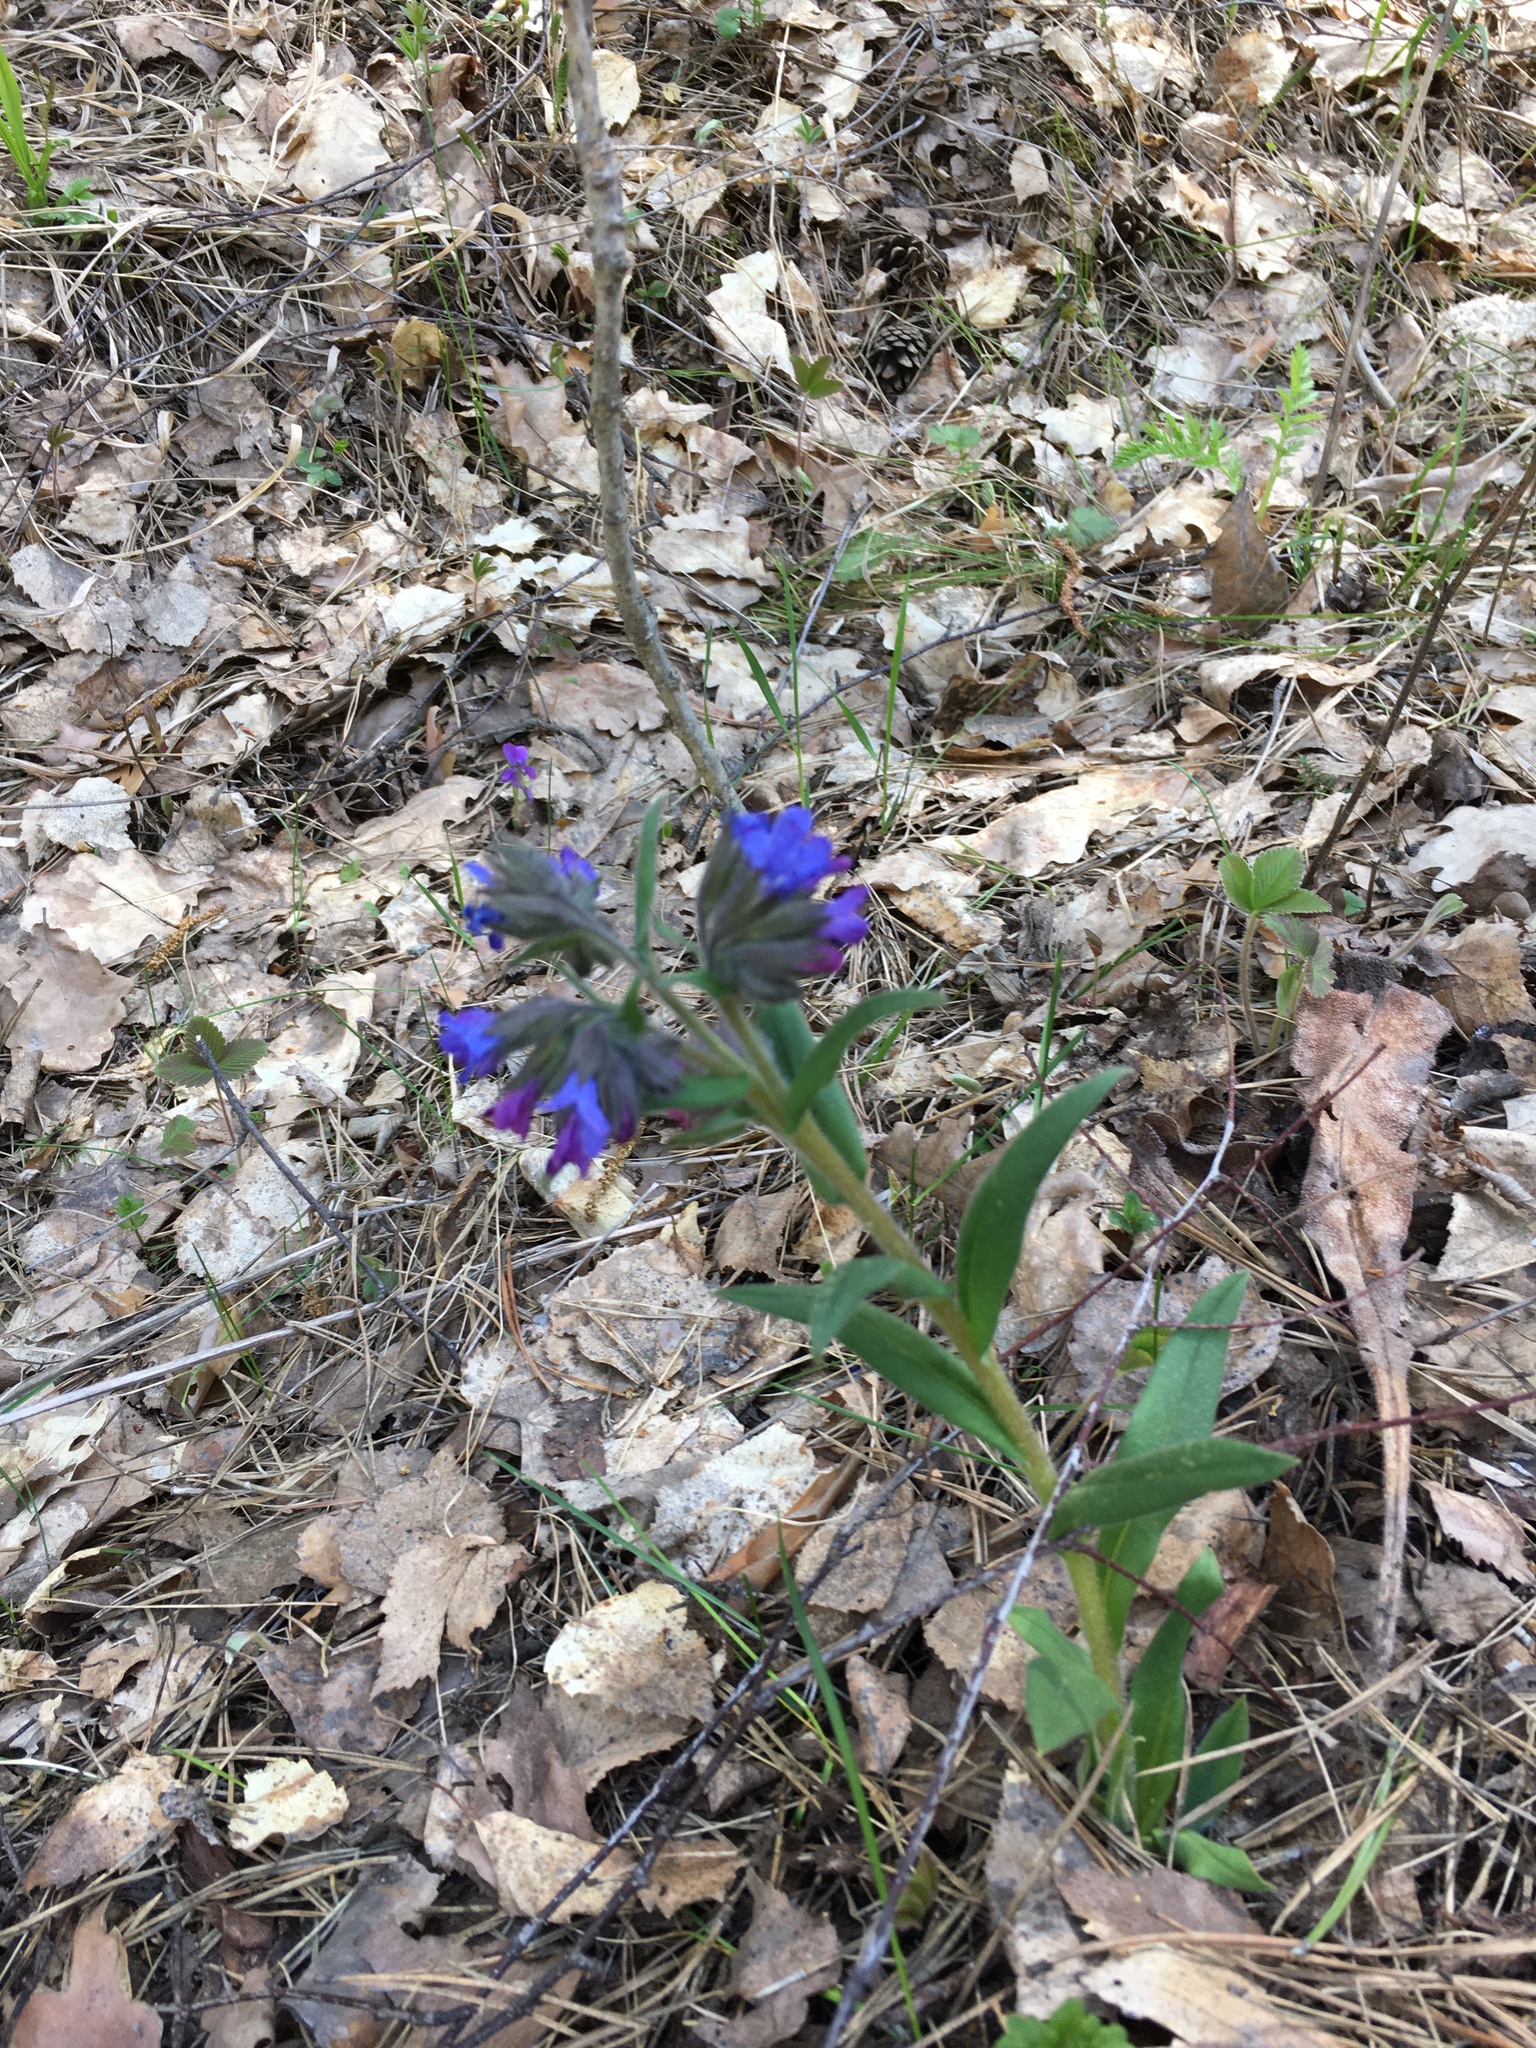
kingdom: Plantae
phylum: Tracheophyta
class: Magnoliopsida
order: Boraginales
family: Boraginaceae
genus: Pulmonaria
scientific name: Pulmonaria angustifolia
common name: Blue cowslip
